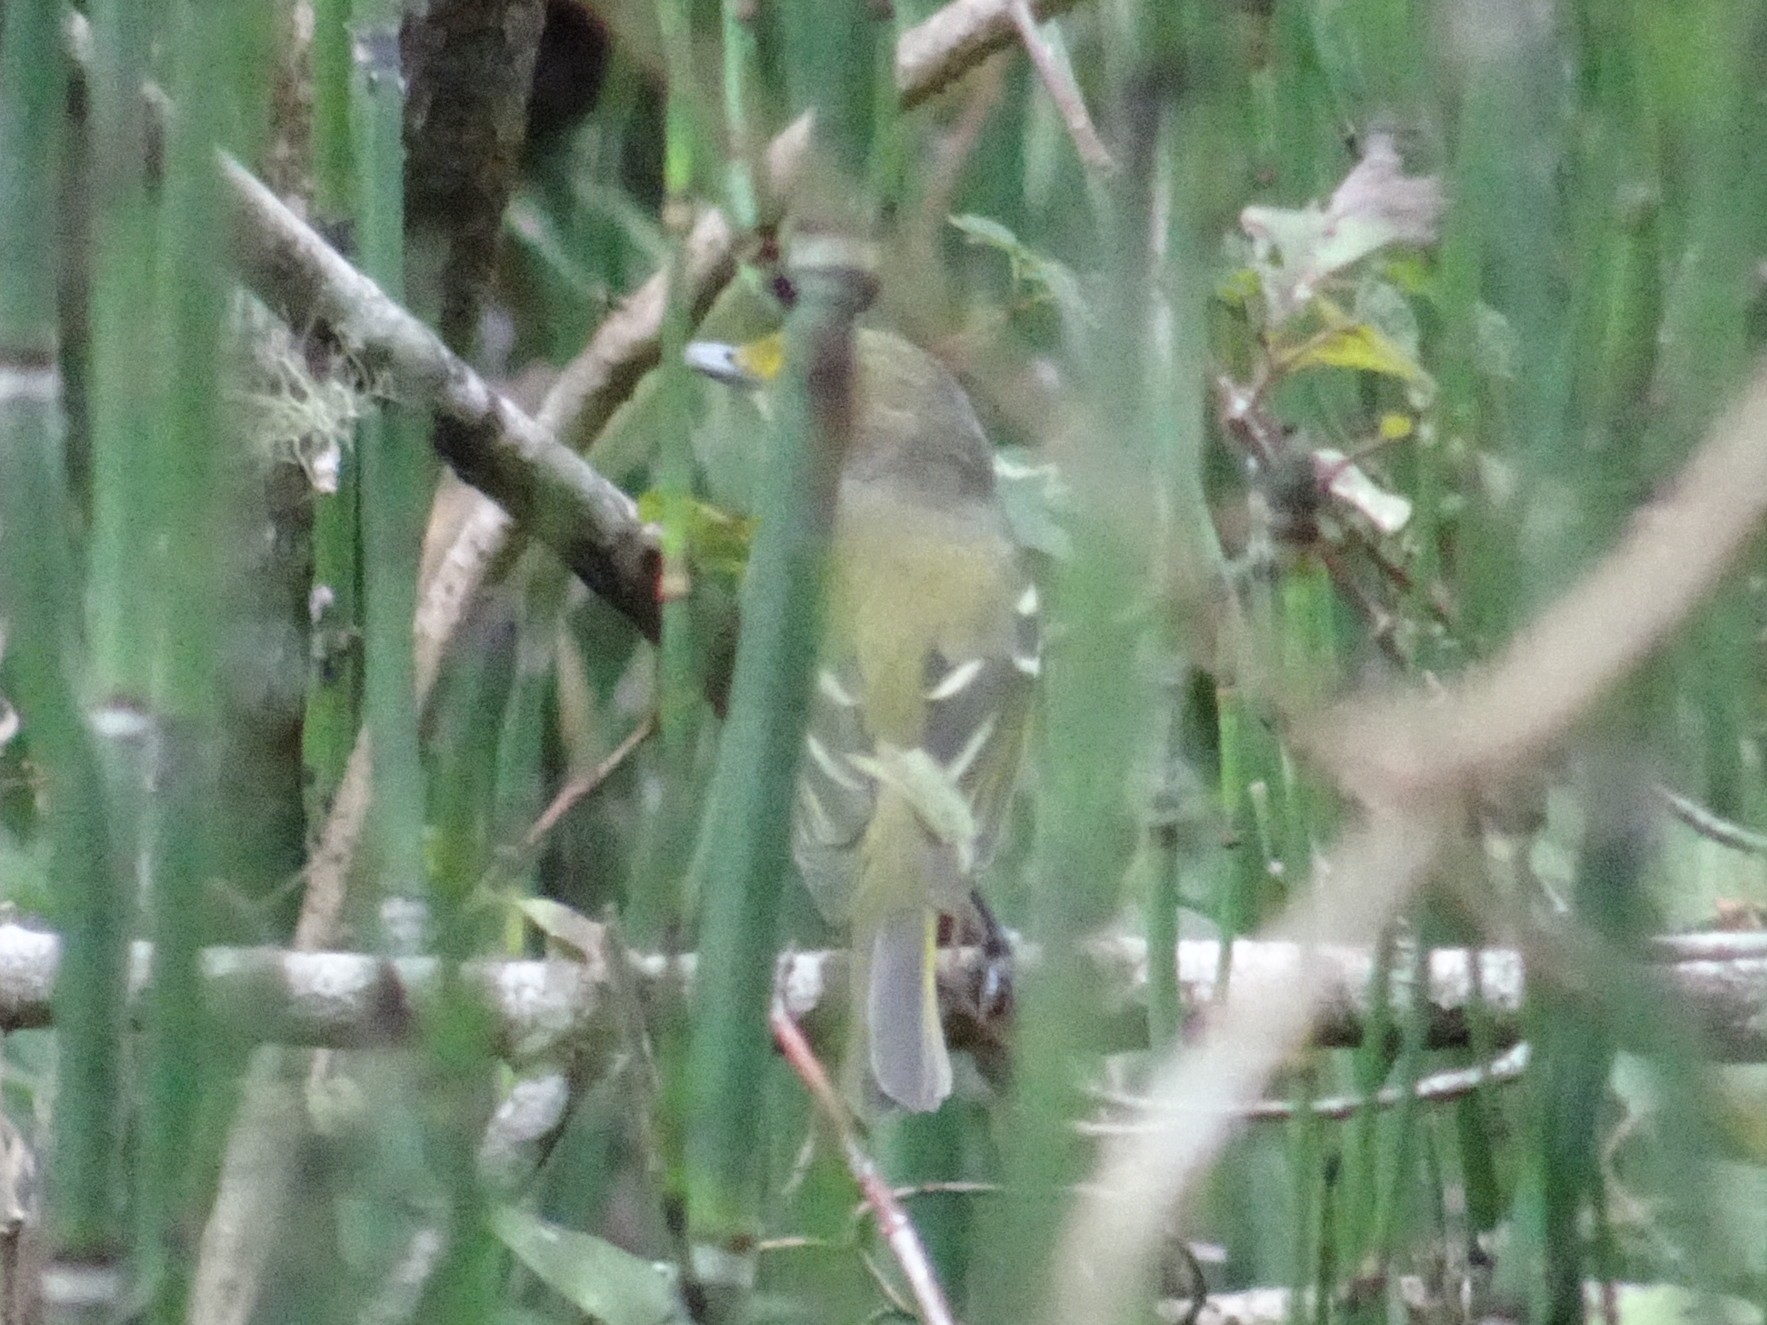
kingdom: Animalia
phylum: Chordata
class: Aves
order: Passeriformes
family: Vireonidae
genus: Vireo
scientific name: Vireo griseus
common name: White-eyed vireo
